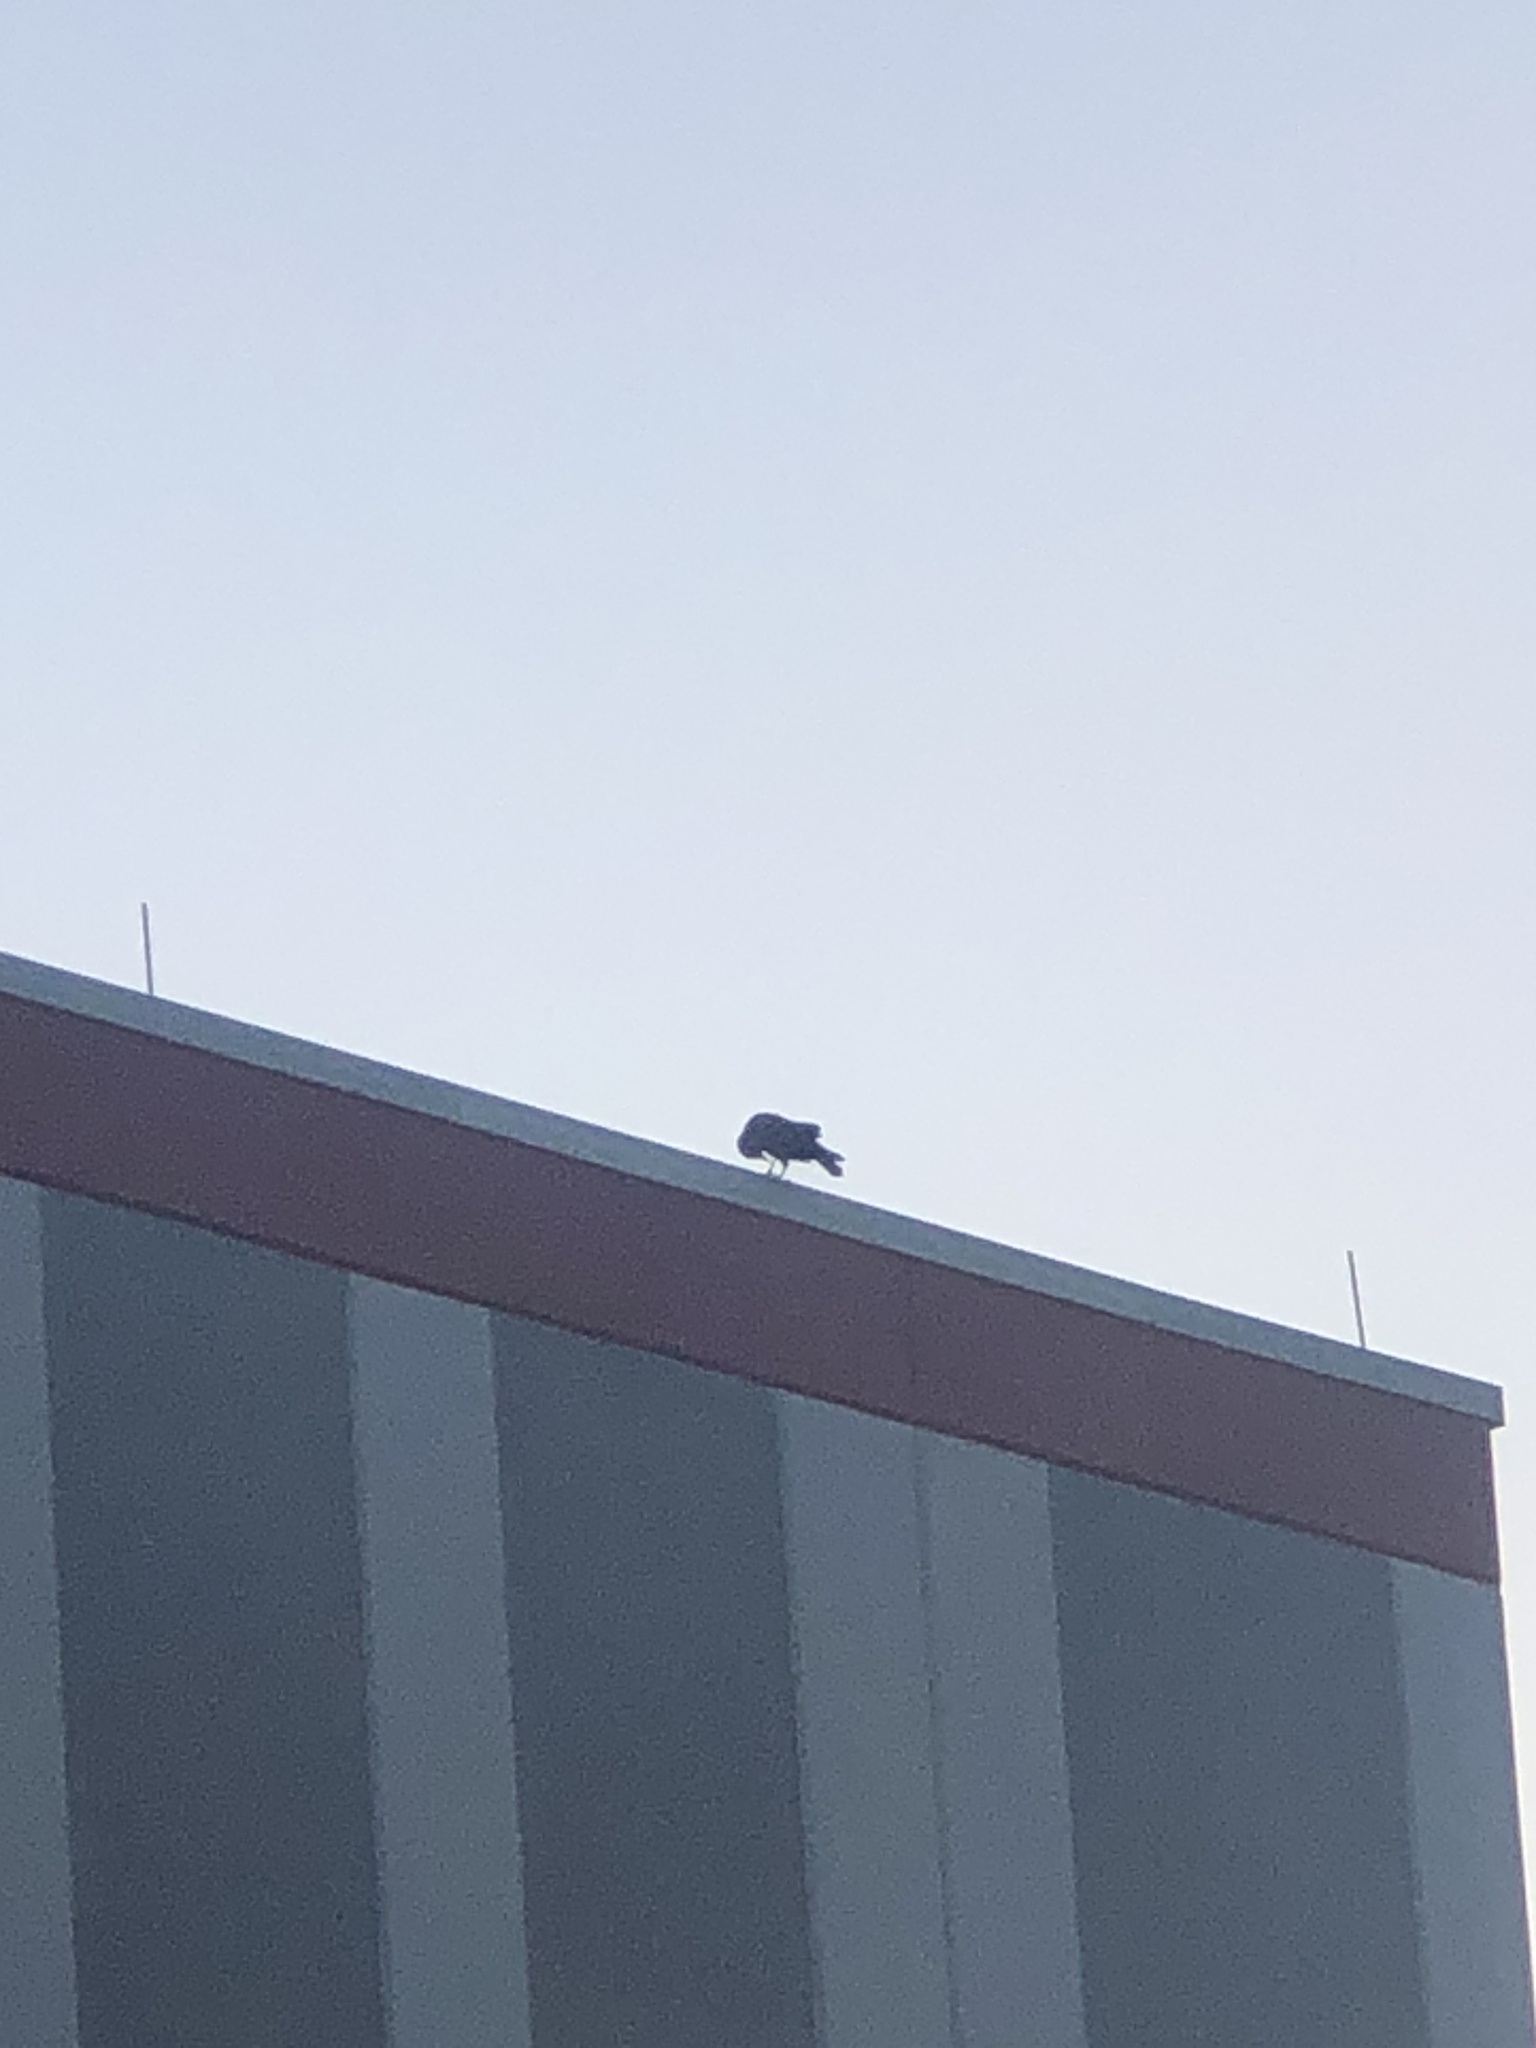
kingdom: Animalia
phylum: Chordata
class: Aves
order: Passeriformes
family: Corvidae
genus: Corvus
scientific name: Corvus
